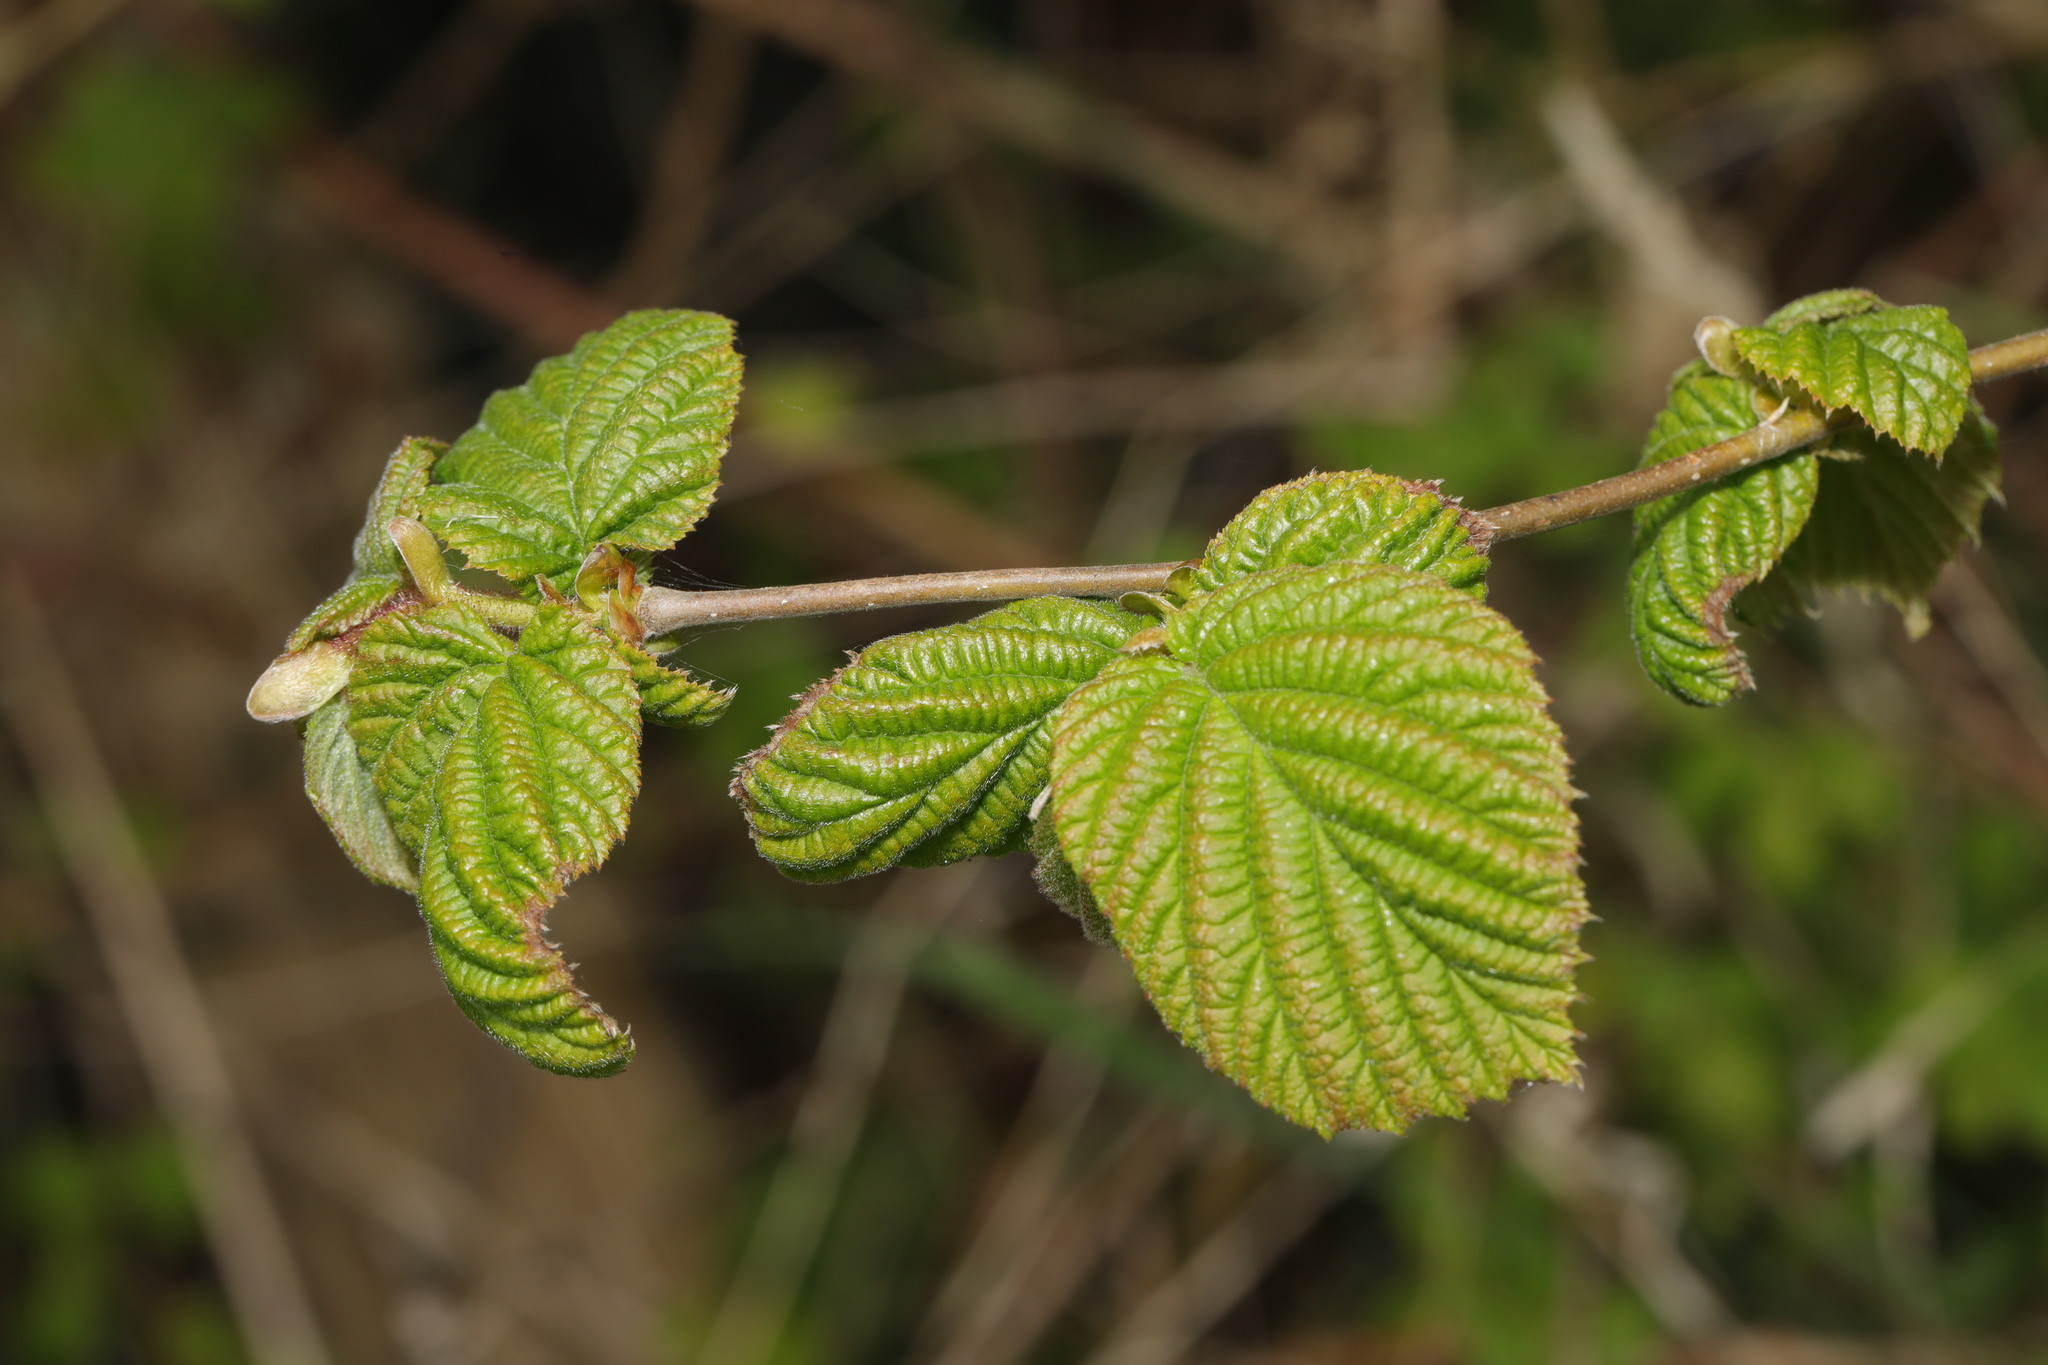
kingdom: Plantae
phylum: Tracheophyta
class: Magnoliopsida
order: Fagales
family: Betulaceae
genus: Corylus
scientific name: Corylus avellana
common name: European hazel
